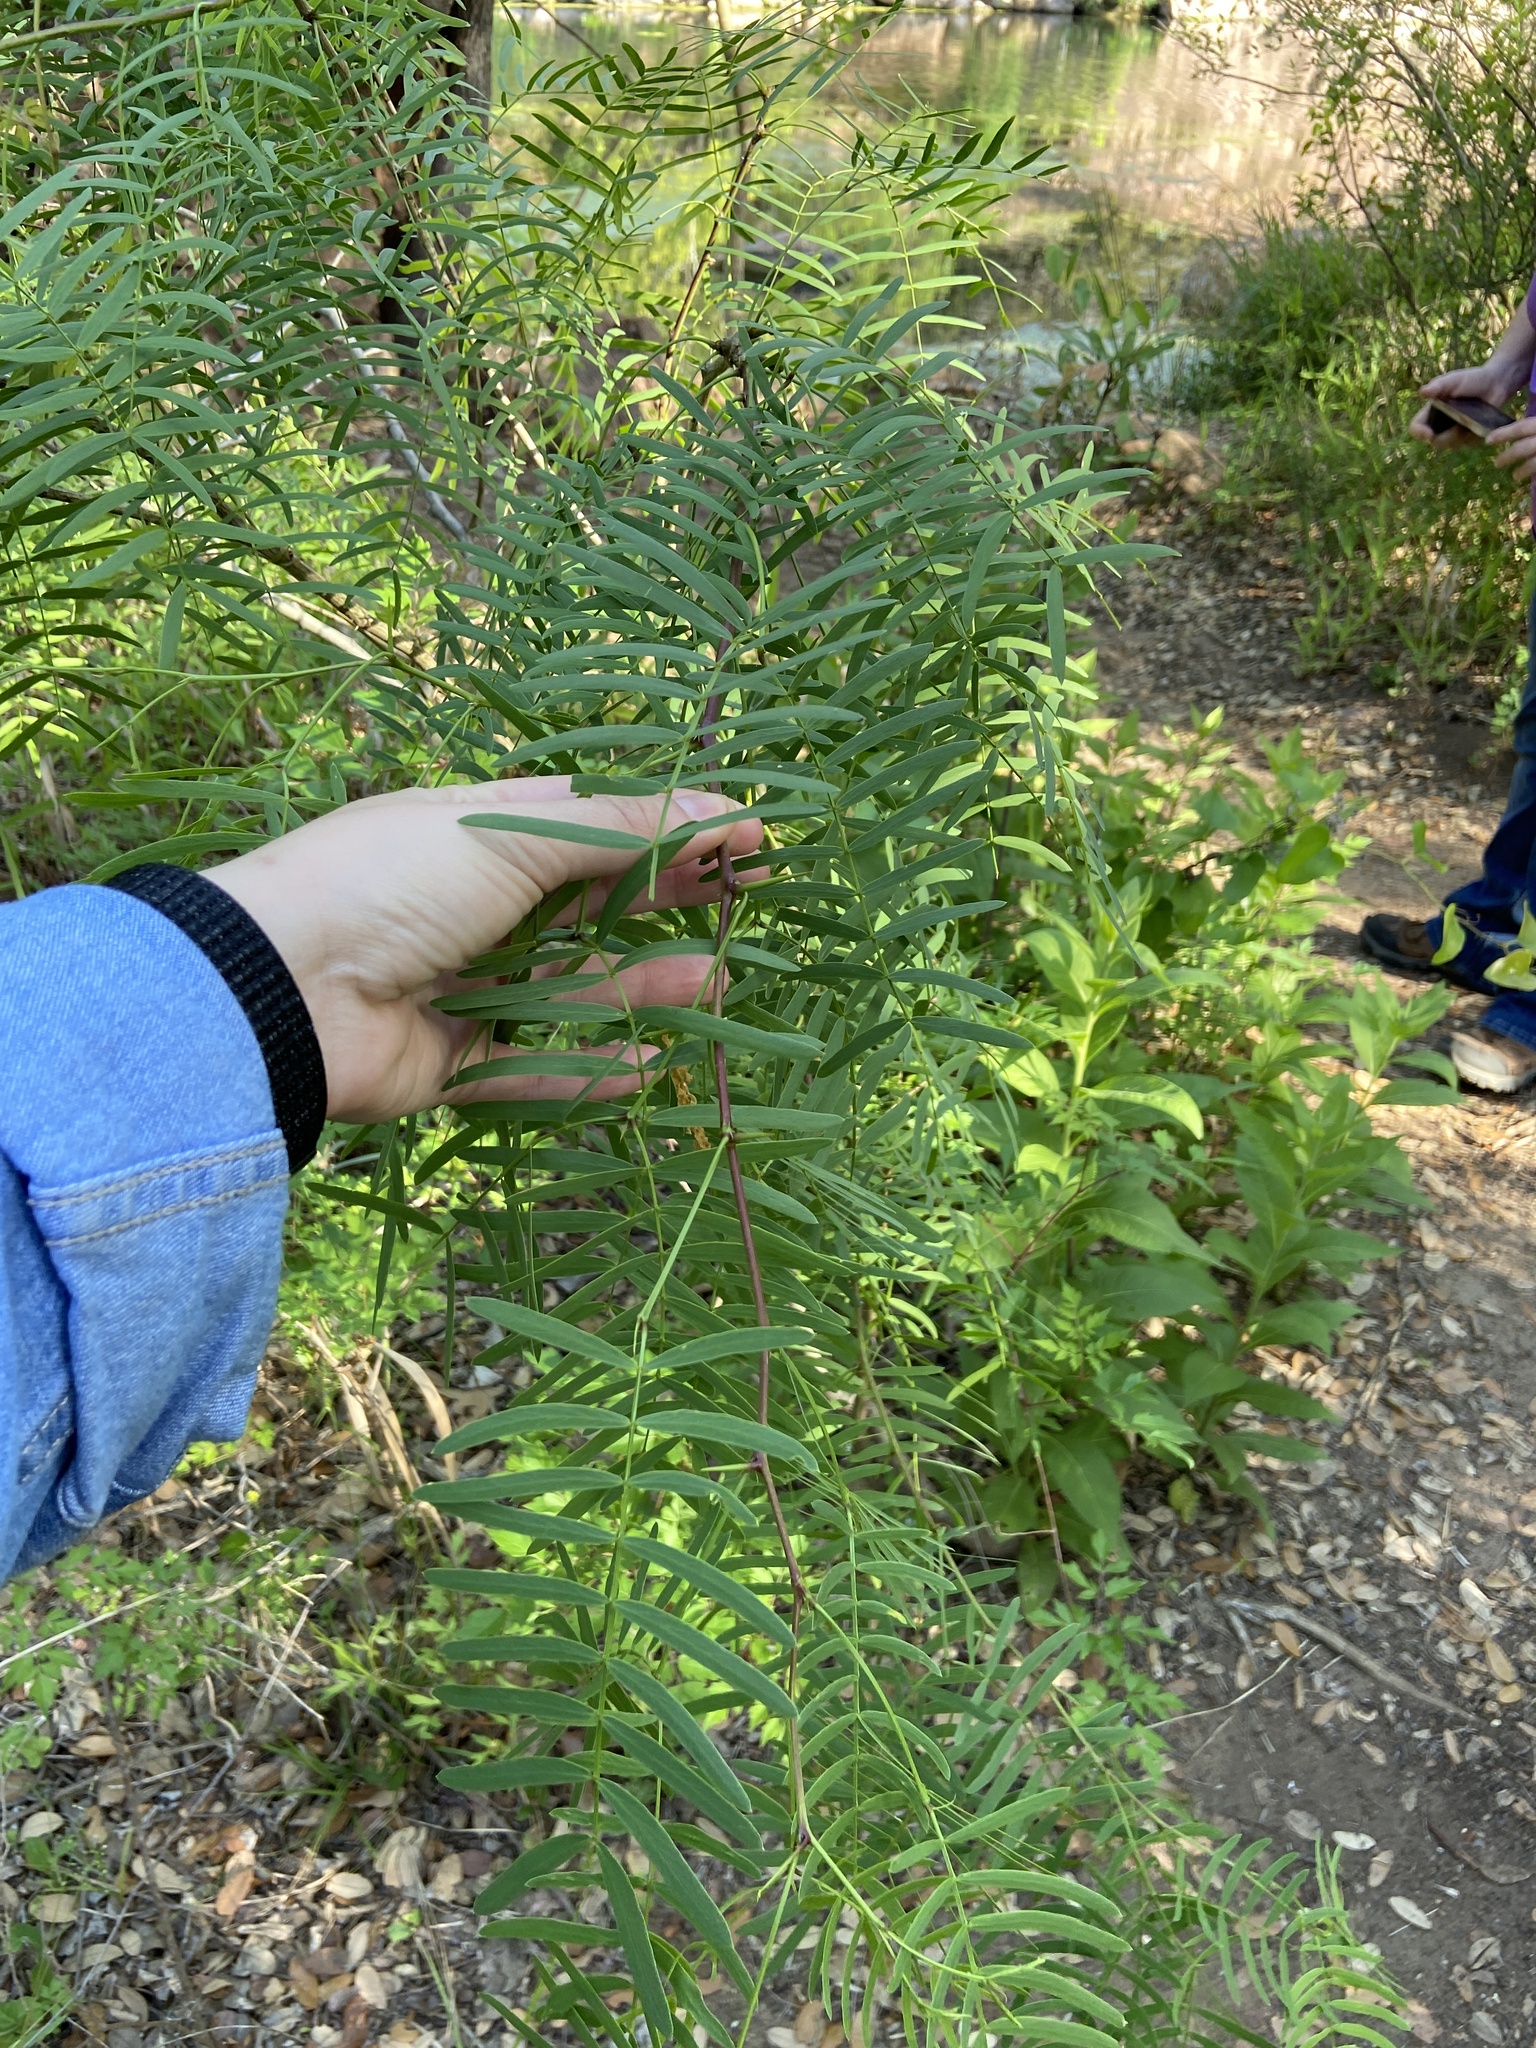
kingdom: Plantae
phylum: Tracheophyta
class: Magnoliopsida
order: Fabales
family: Fabaceae
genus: Prosopis
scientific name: Prosopis glandulosa
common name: Honey mesquite
